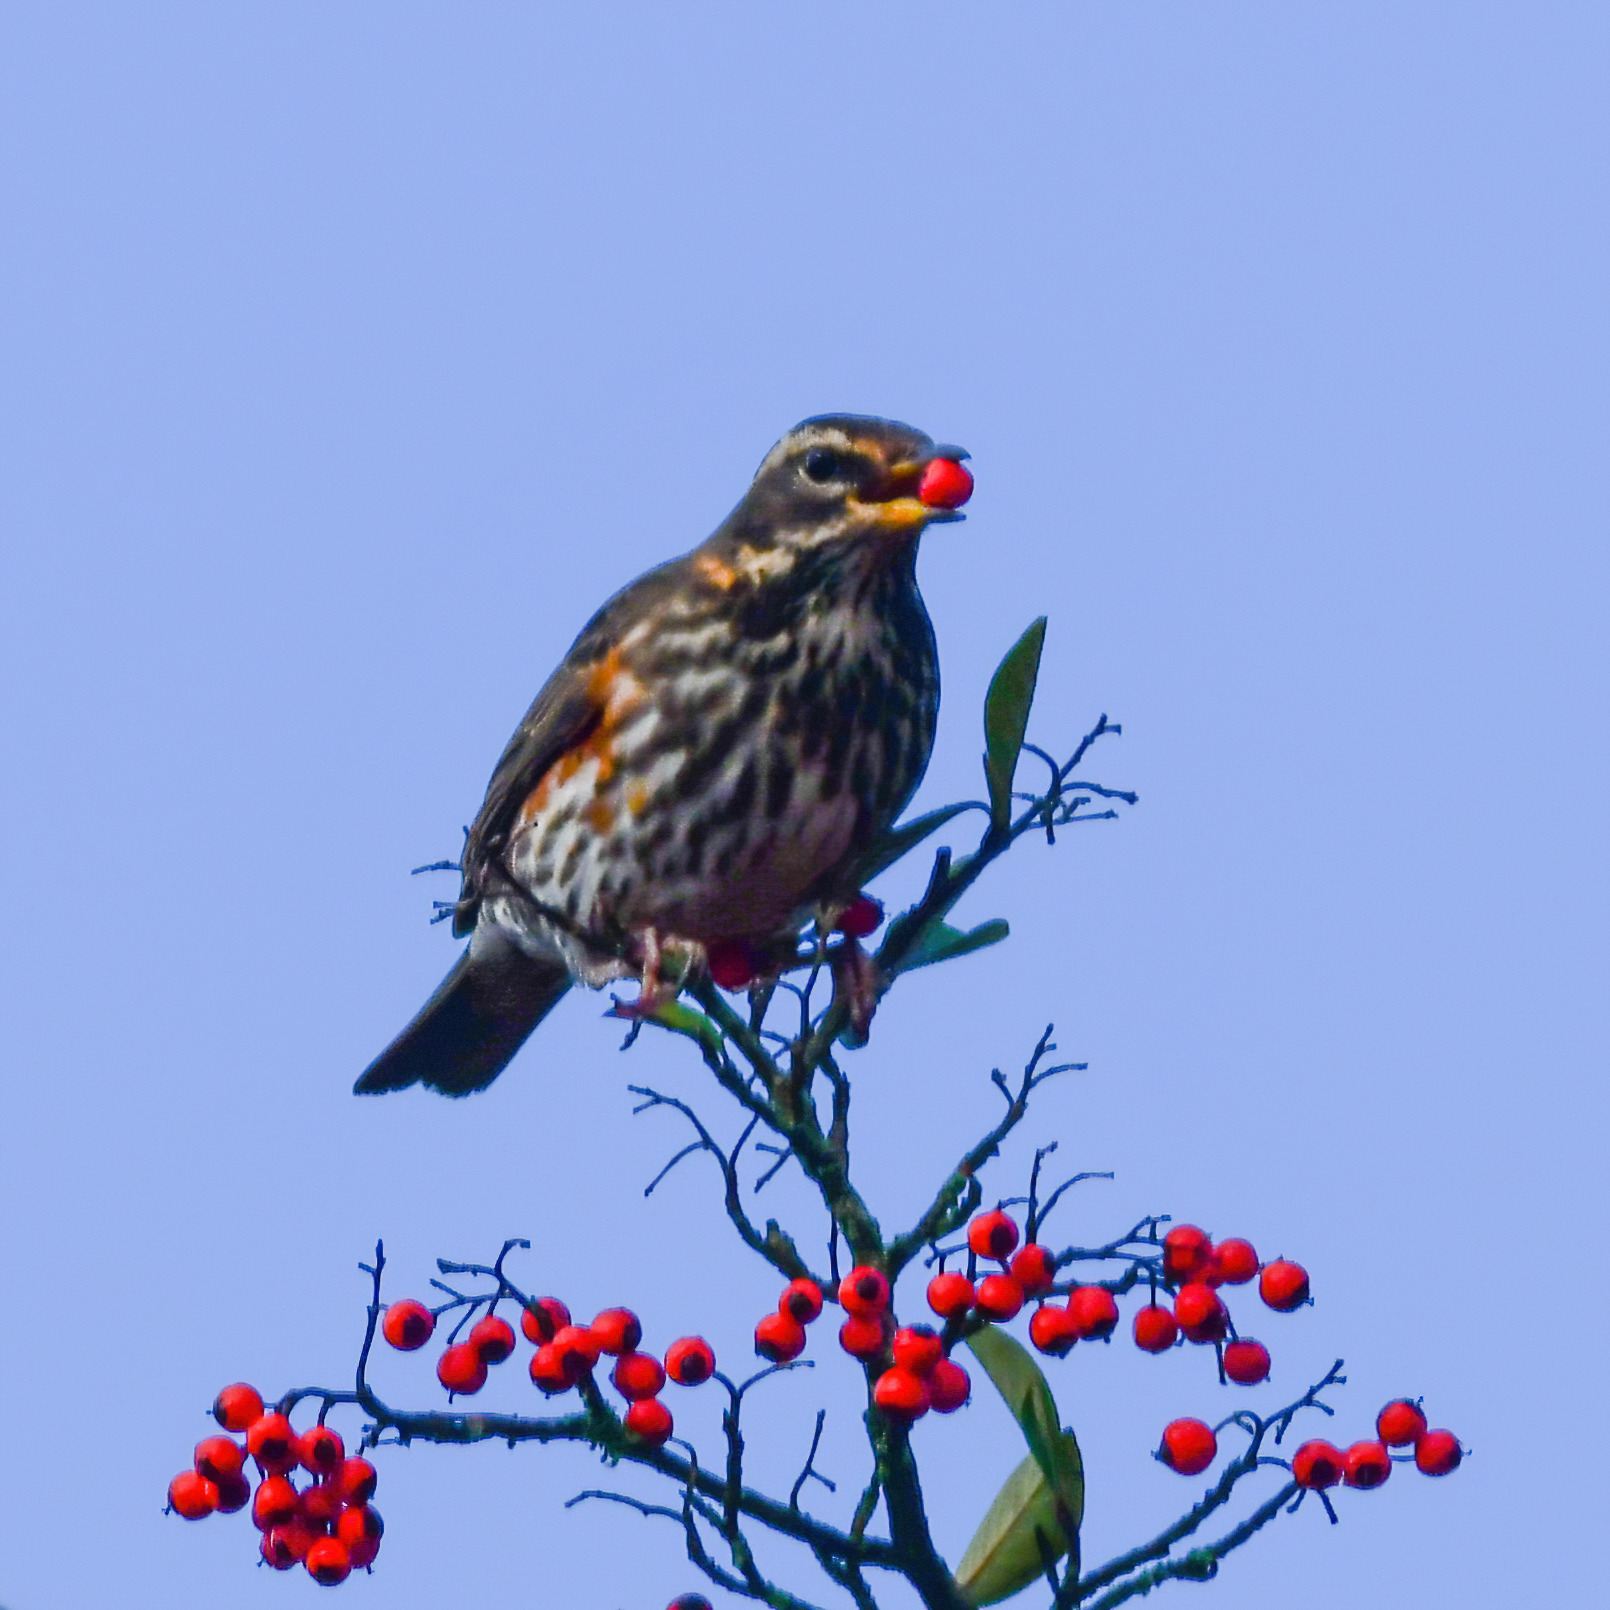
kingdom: Animalia
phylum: Chordata
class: Aves
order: Passeriformes
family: Turdidae
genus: Turdus
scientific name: Turdus iliacus
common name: Redwing
